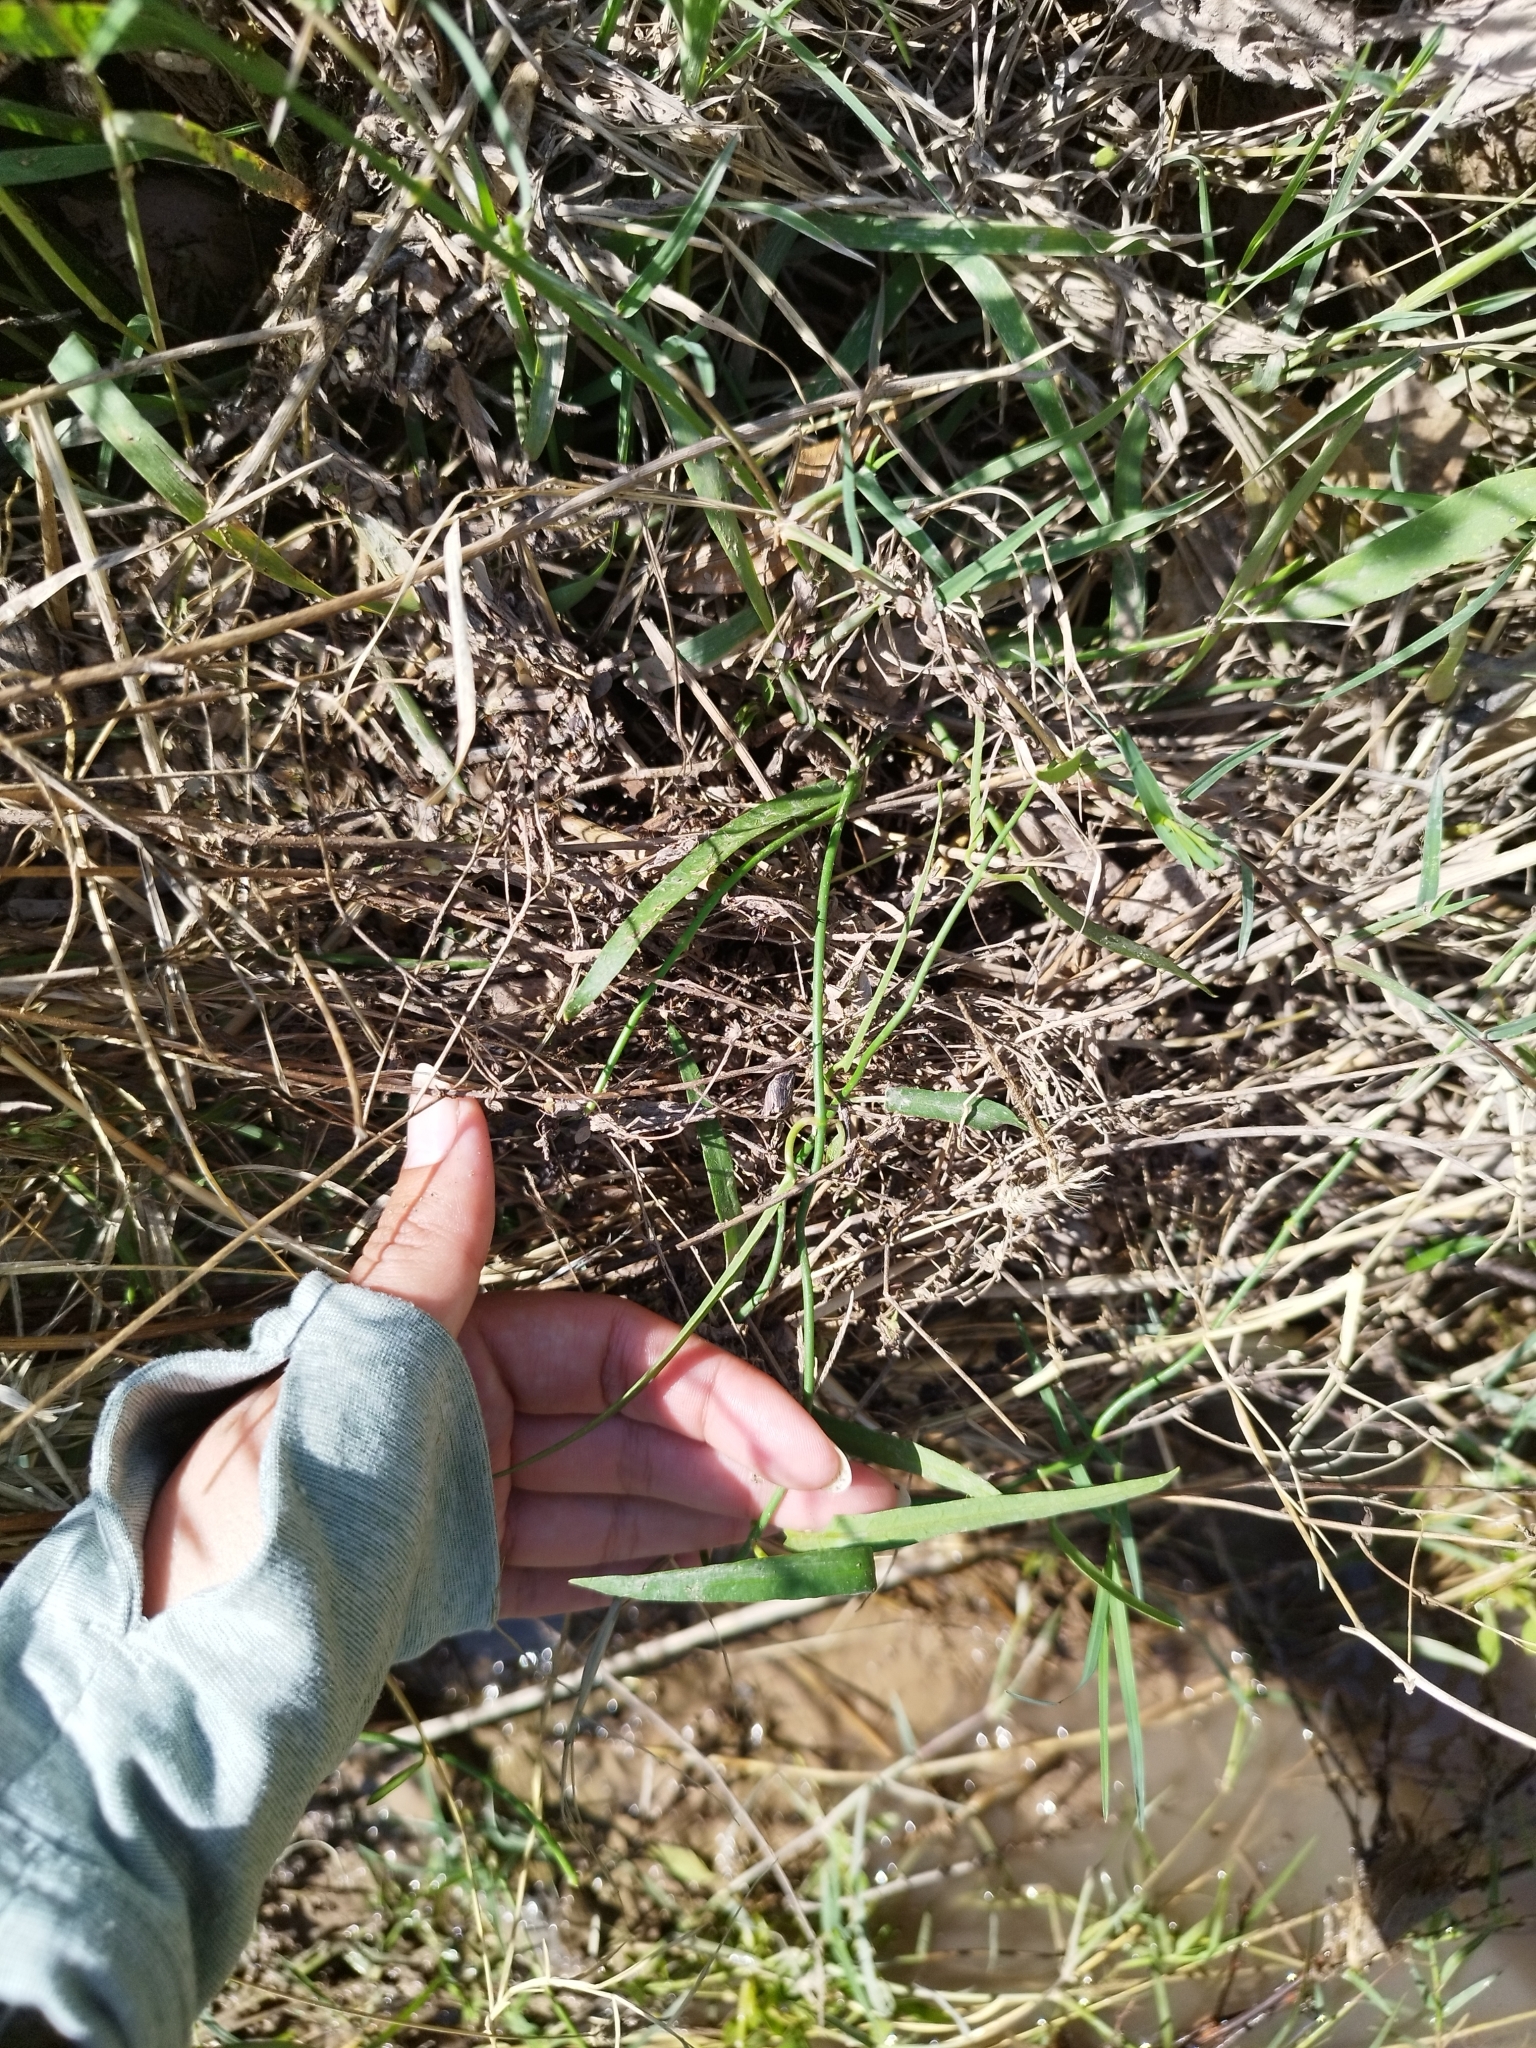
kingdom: Plantae
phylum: Tracheophyta
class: Magnoliopsida
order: Gentianales
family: Apocynaceae
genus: Funastrum
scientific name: Funastrum clausum
